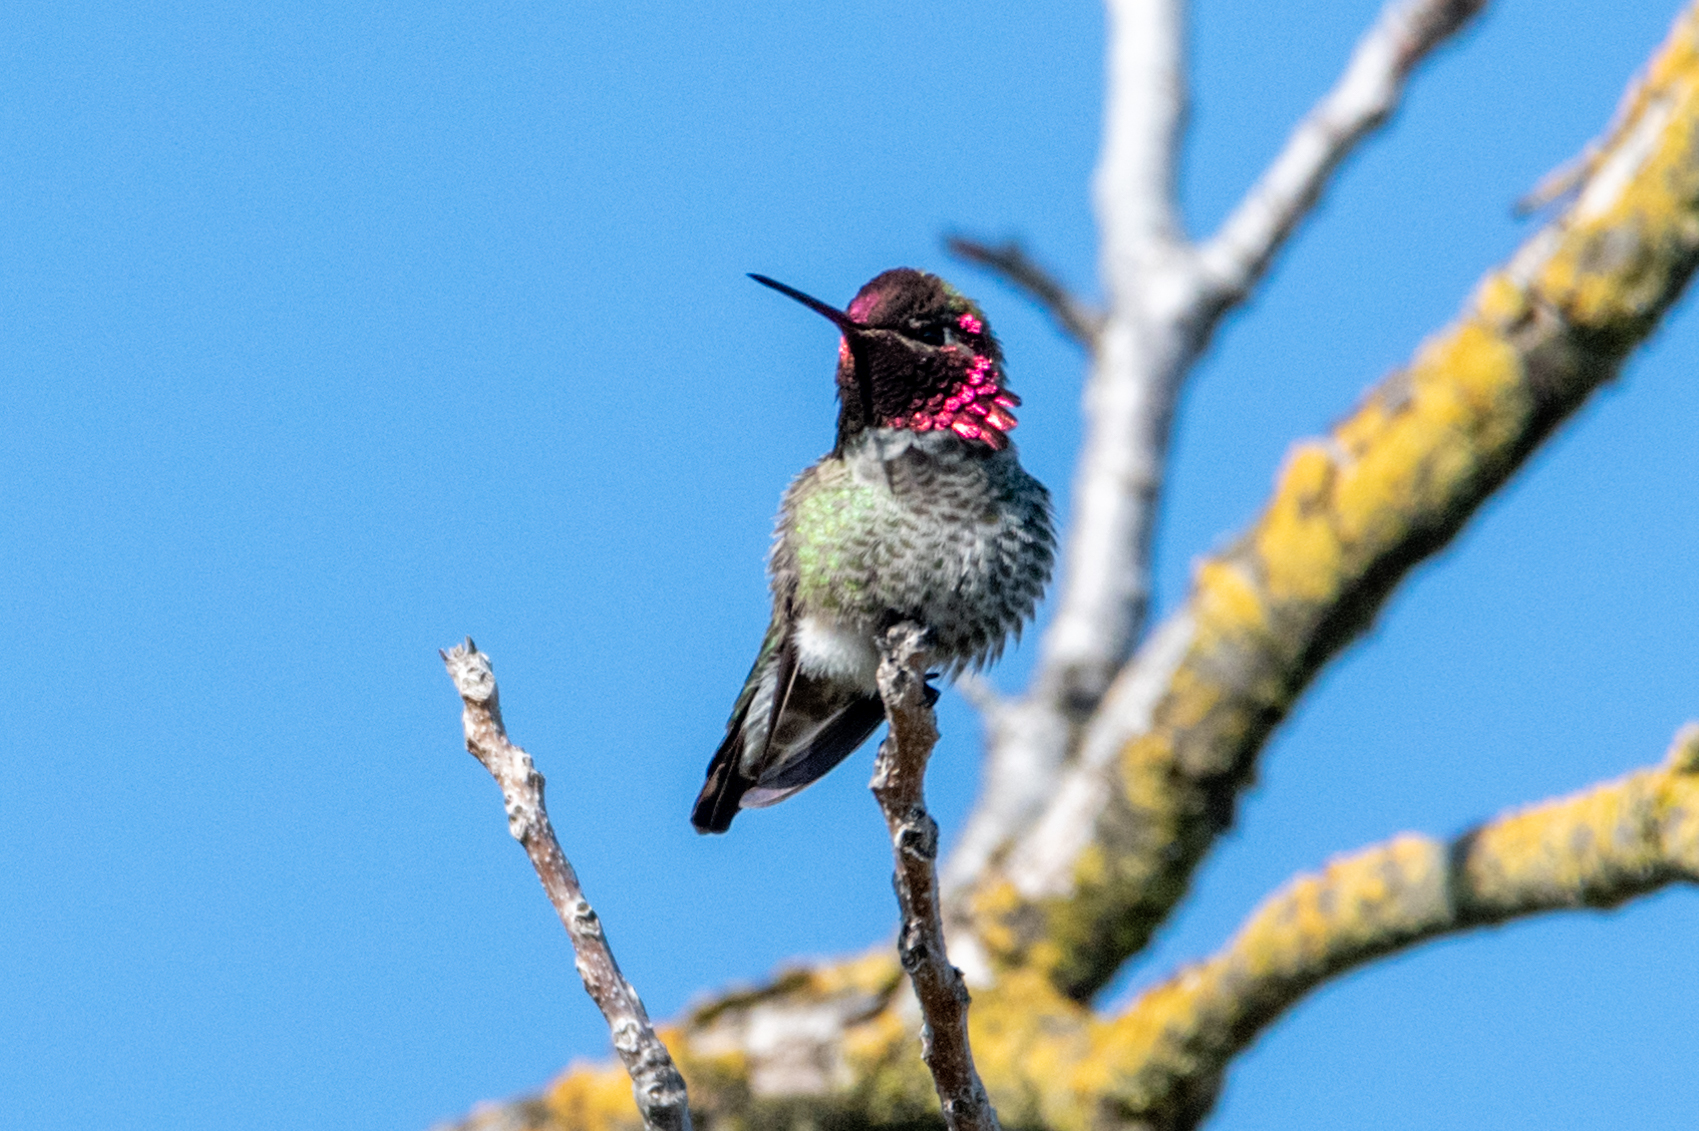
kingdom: Animalia
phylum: Chordata
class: Aves
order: Apodiformes
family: Trochilidae
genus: Calypte
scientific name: Calypte anna
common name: Anna's hummingbird
